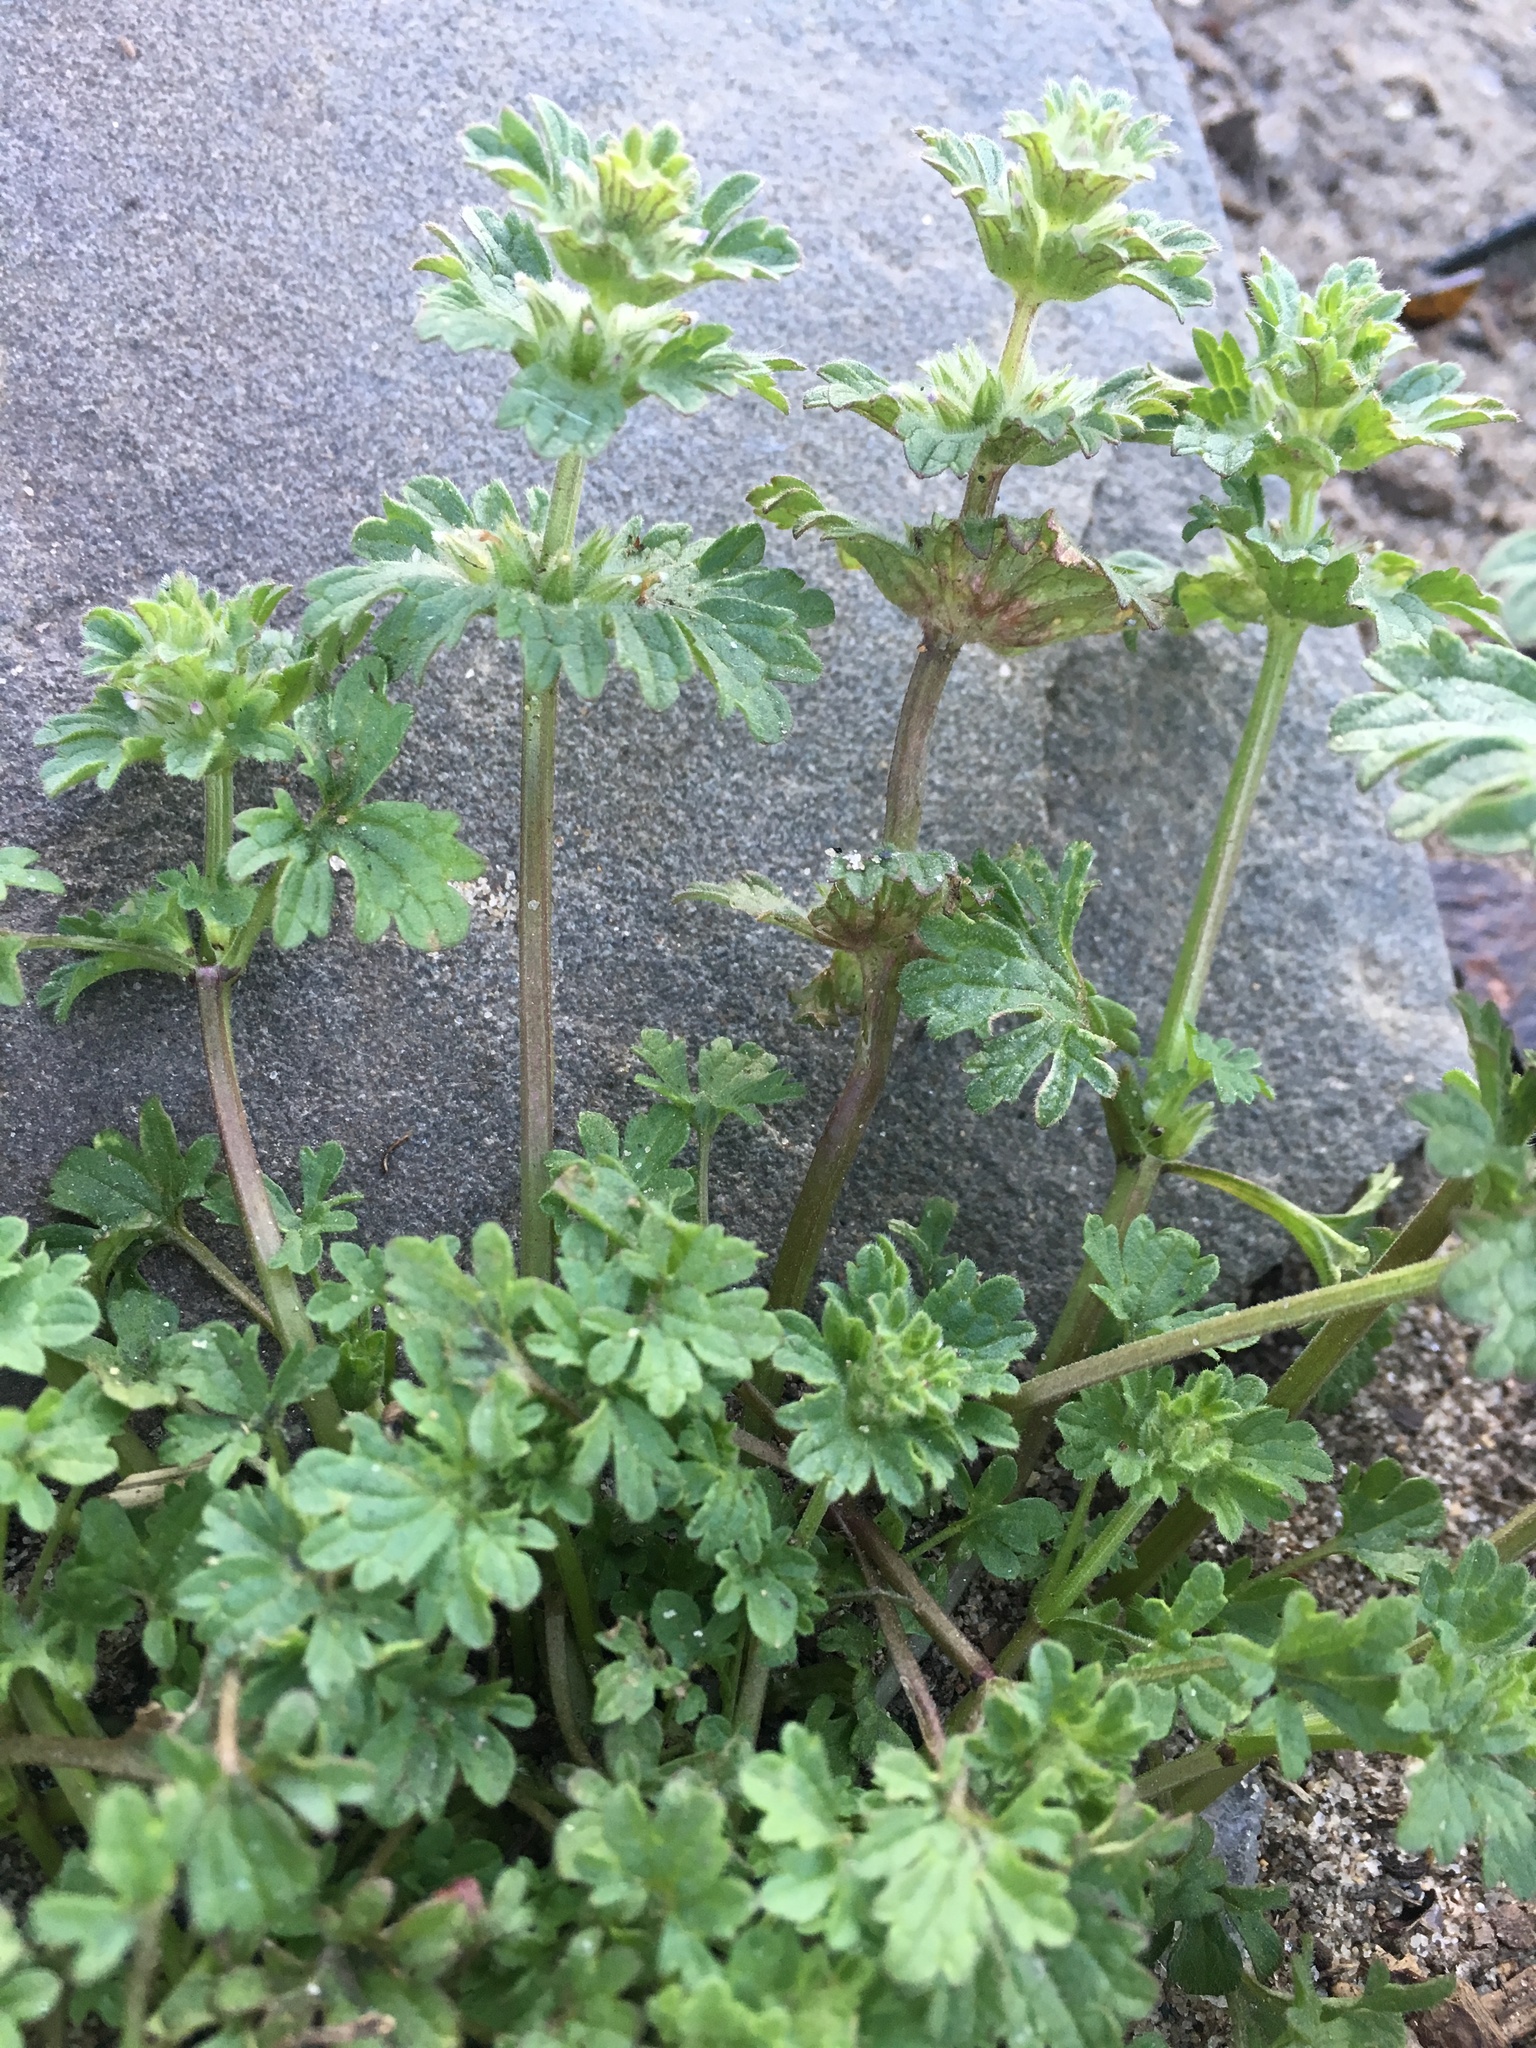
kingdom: Plantae
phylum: Tracheophyta
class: Magnoliopsida
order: Lamiales
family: Lamiaceae
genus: Lamium
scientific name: Lamium amplexicaule
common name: Henbit dead-nettle
